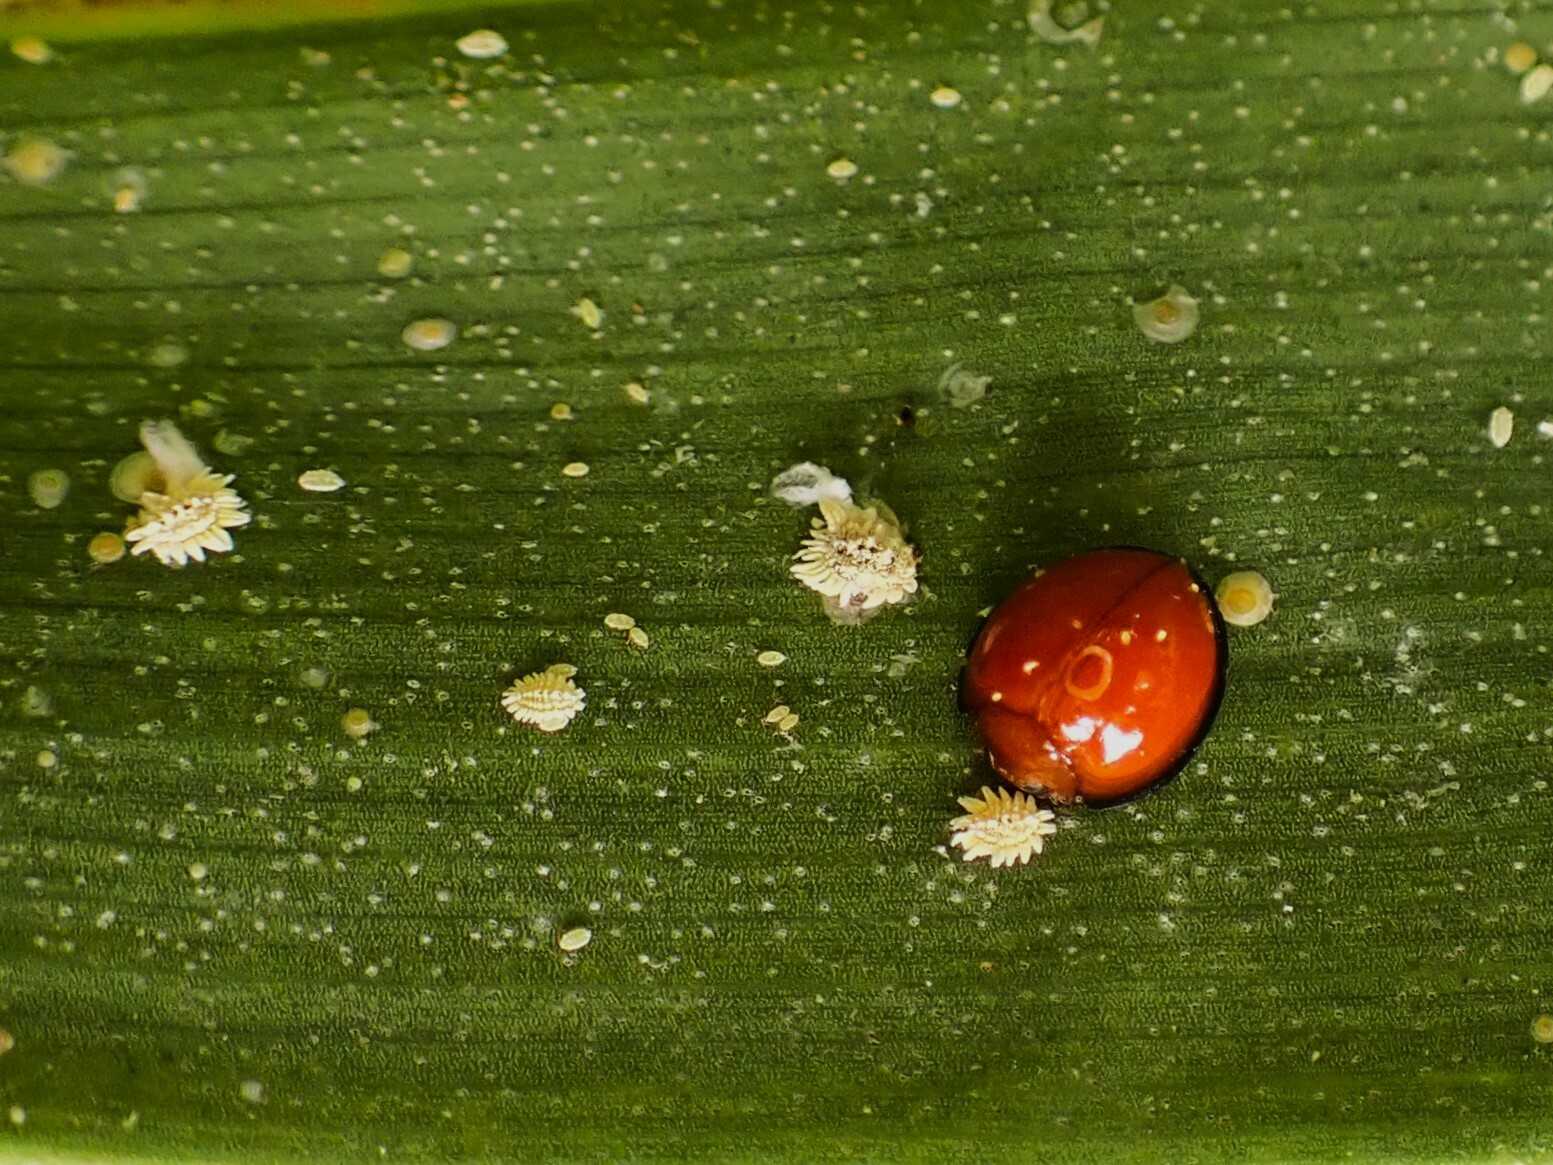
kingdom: Animalia
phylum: Arthropoda
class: Insecta
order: Coleoptera
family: Coccinellidae
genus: Chilocorus
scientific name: Chilocorus circumdatus
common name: Lady beetle
